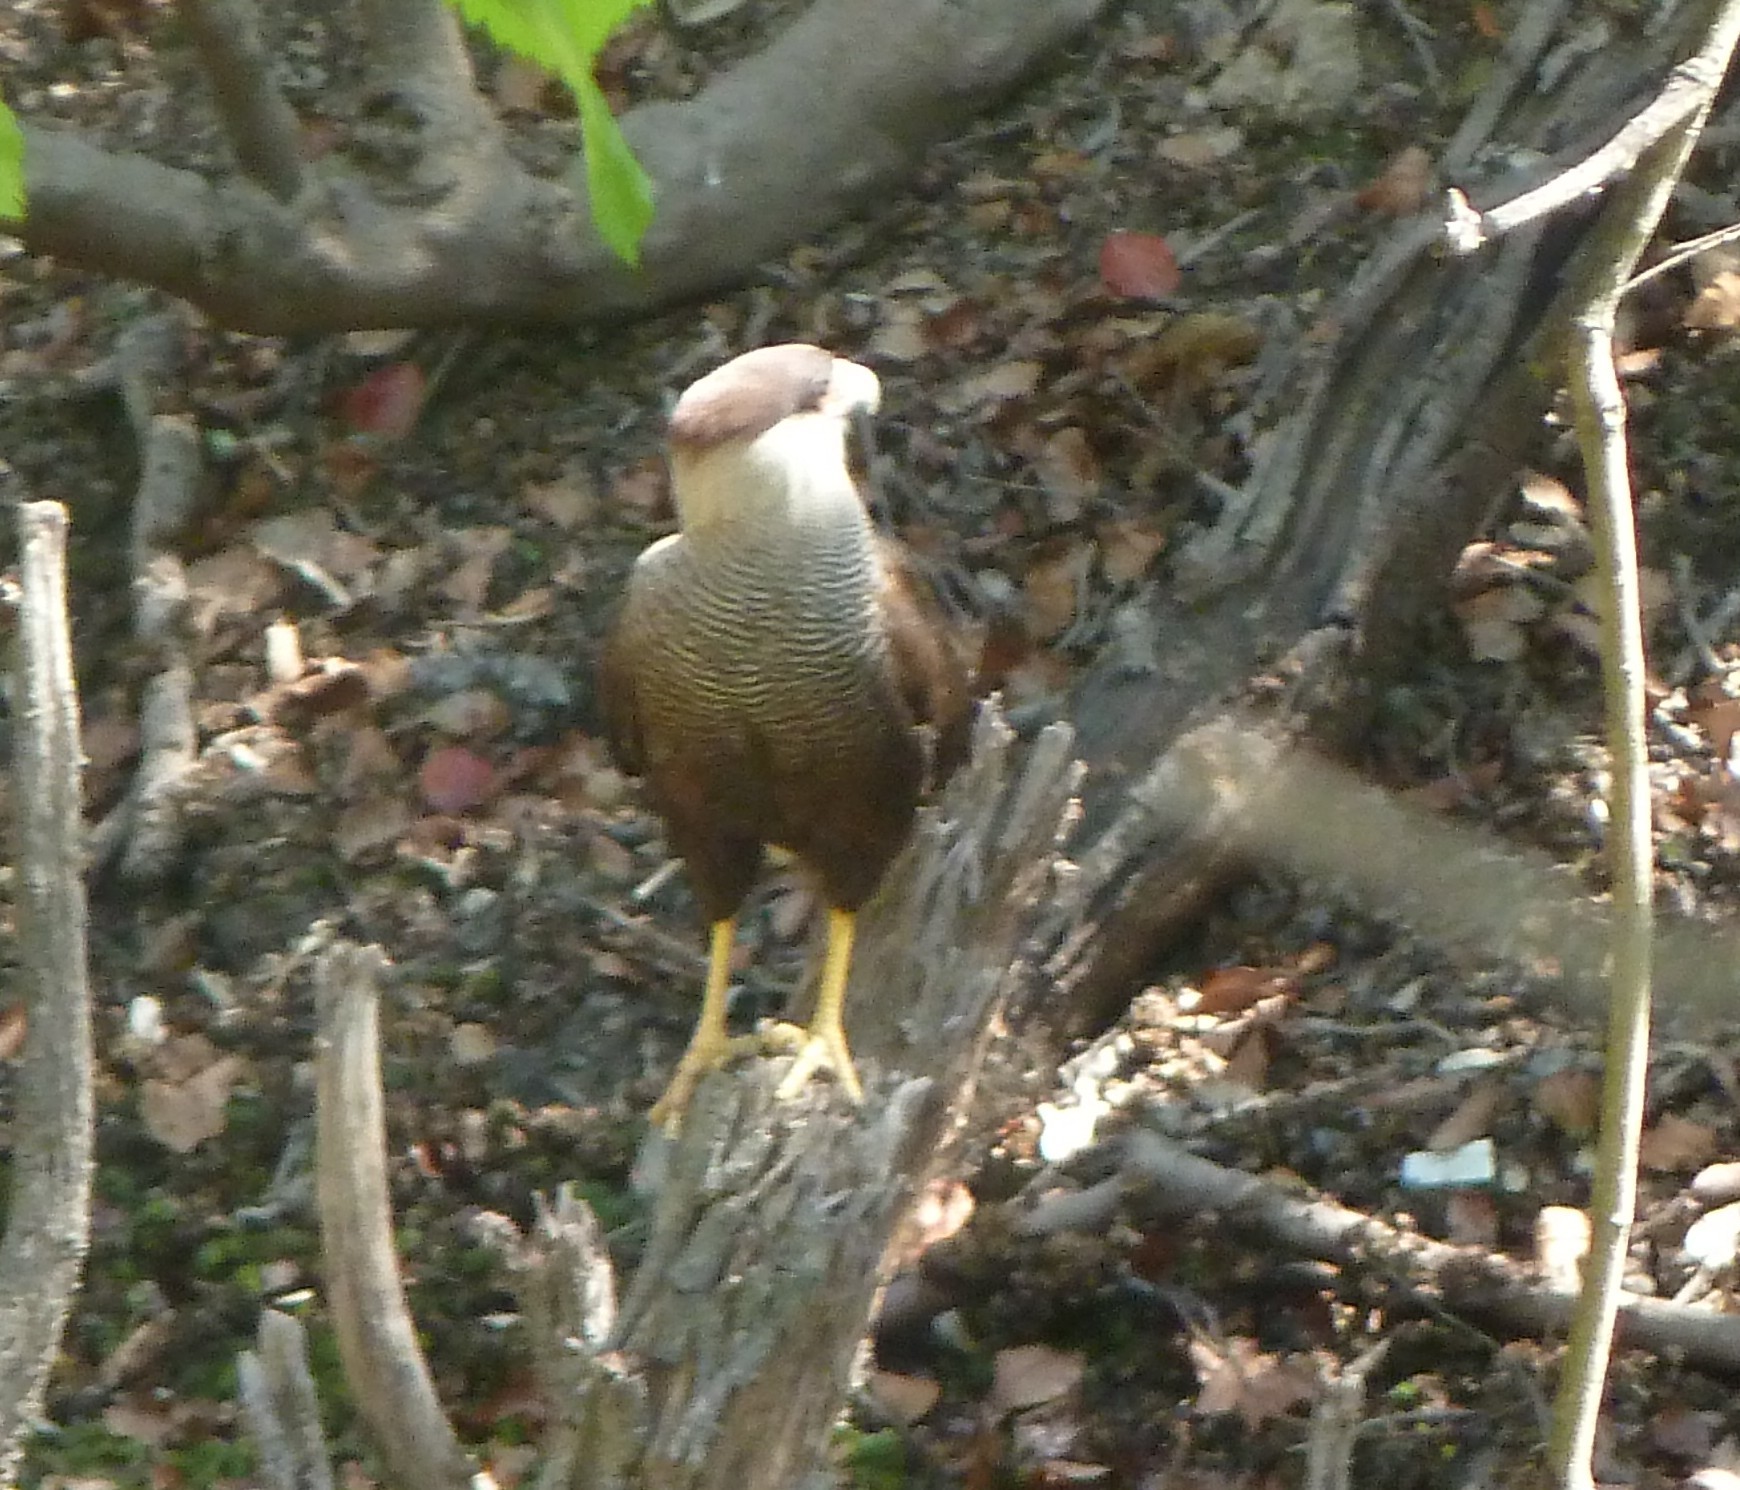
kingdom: Animalia
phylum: Chordata
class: Aves
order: Falconiformes
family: Falconidae
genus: Caracara
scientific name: Caracara plancus
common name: Southern caracara
